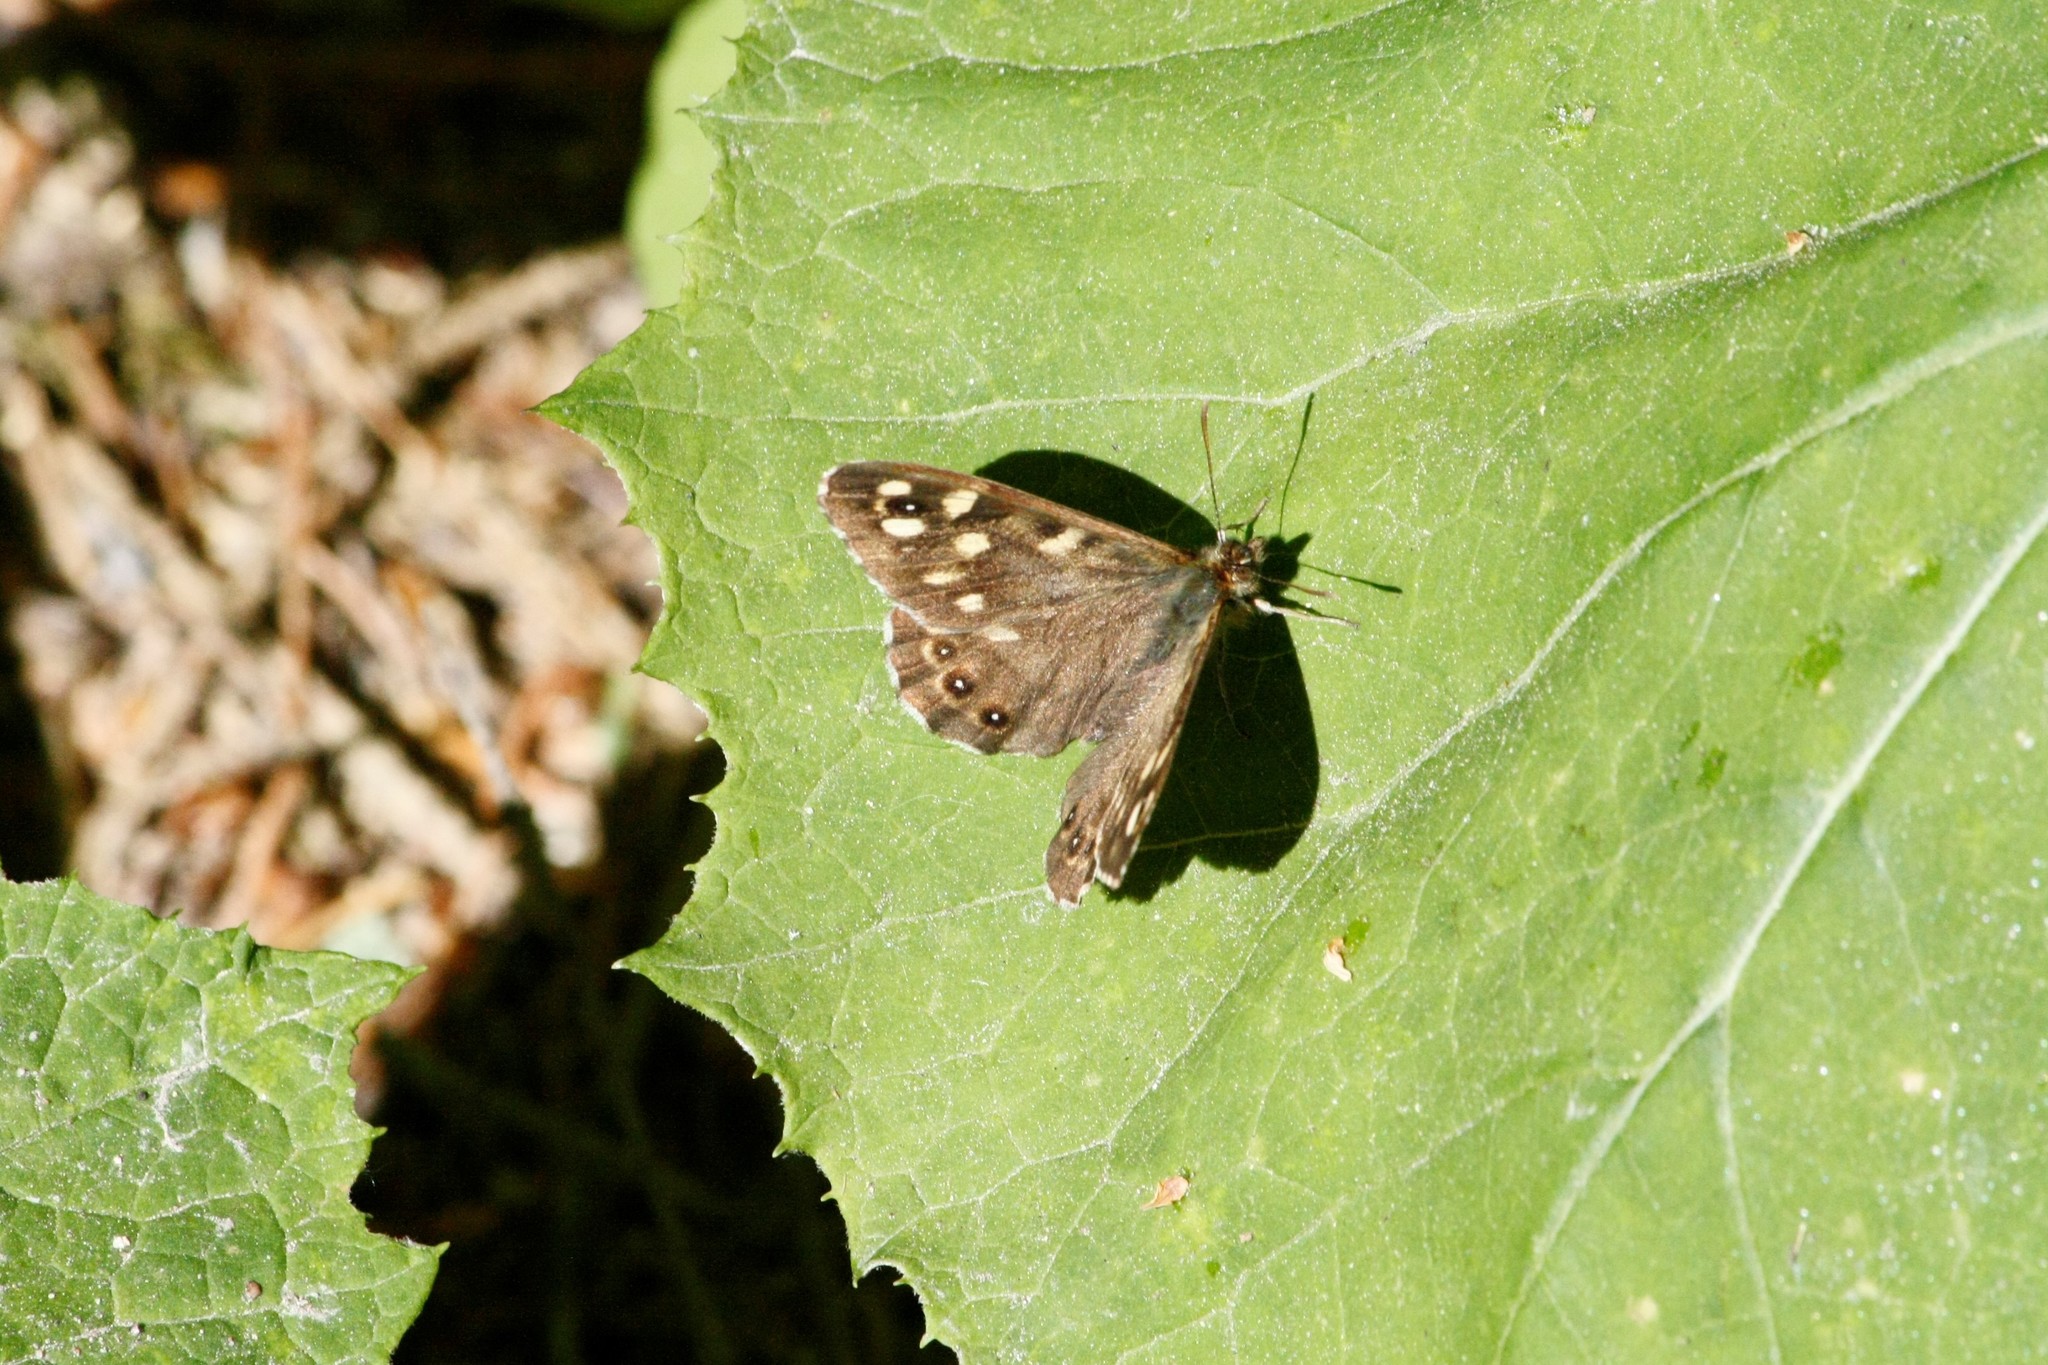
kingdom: Animalia
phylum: Arthropoda
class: Insecta
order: Lepidoptera
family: Nymphalidae
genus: Pararge
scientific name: Pararge aegeria
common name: Speckled wood
